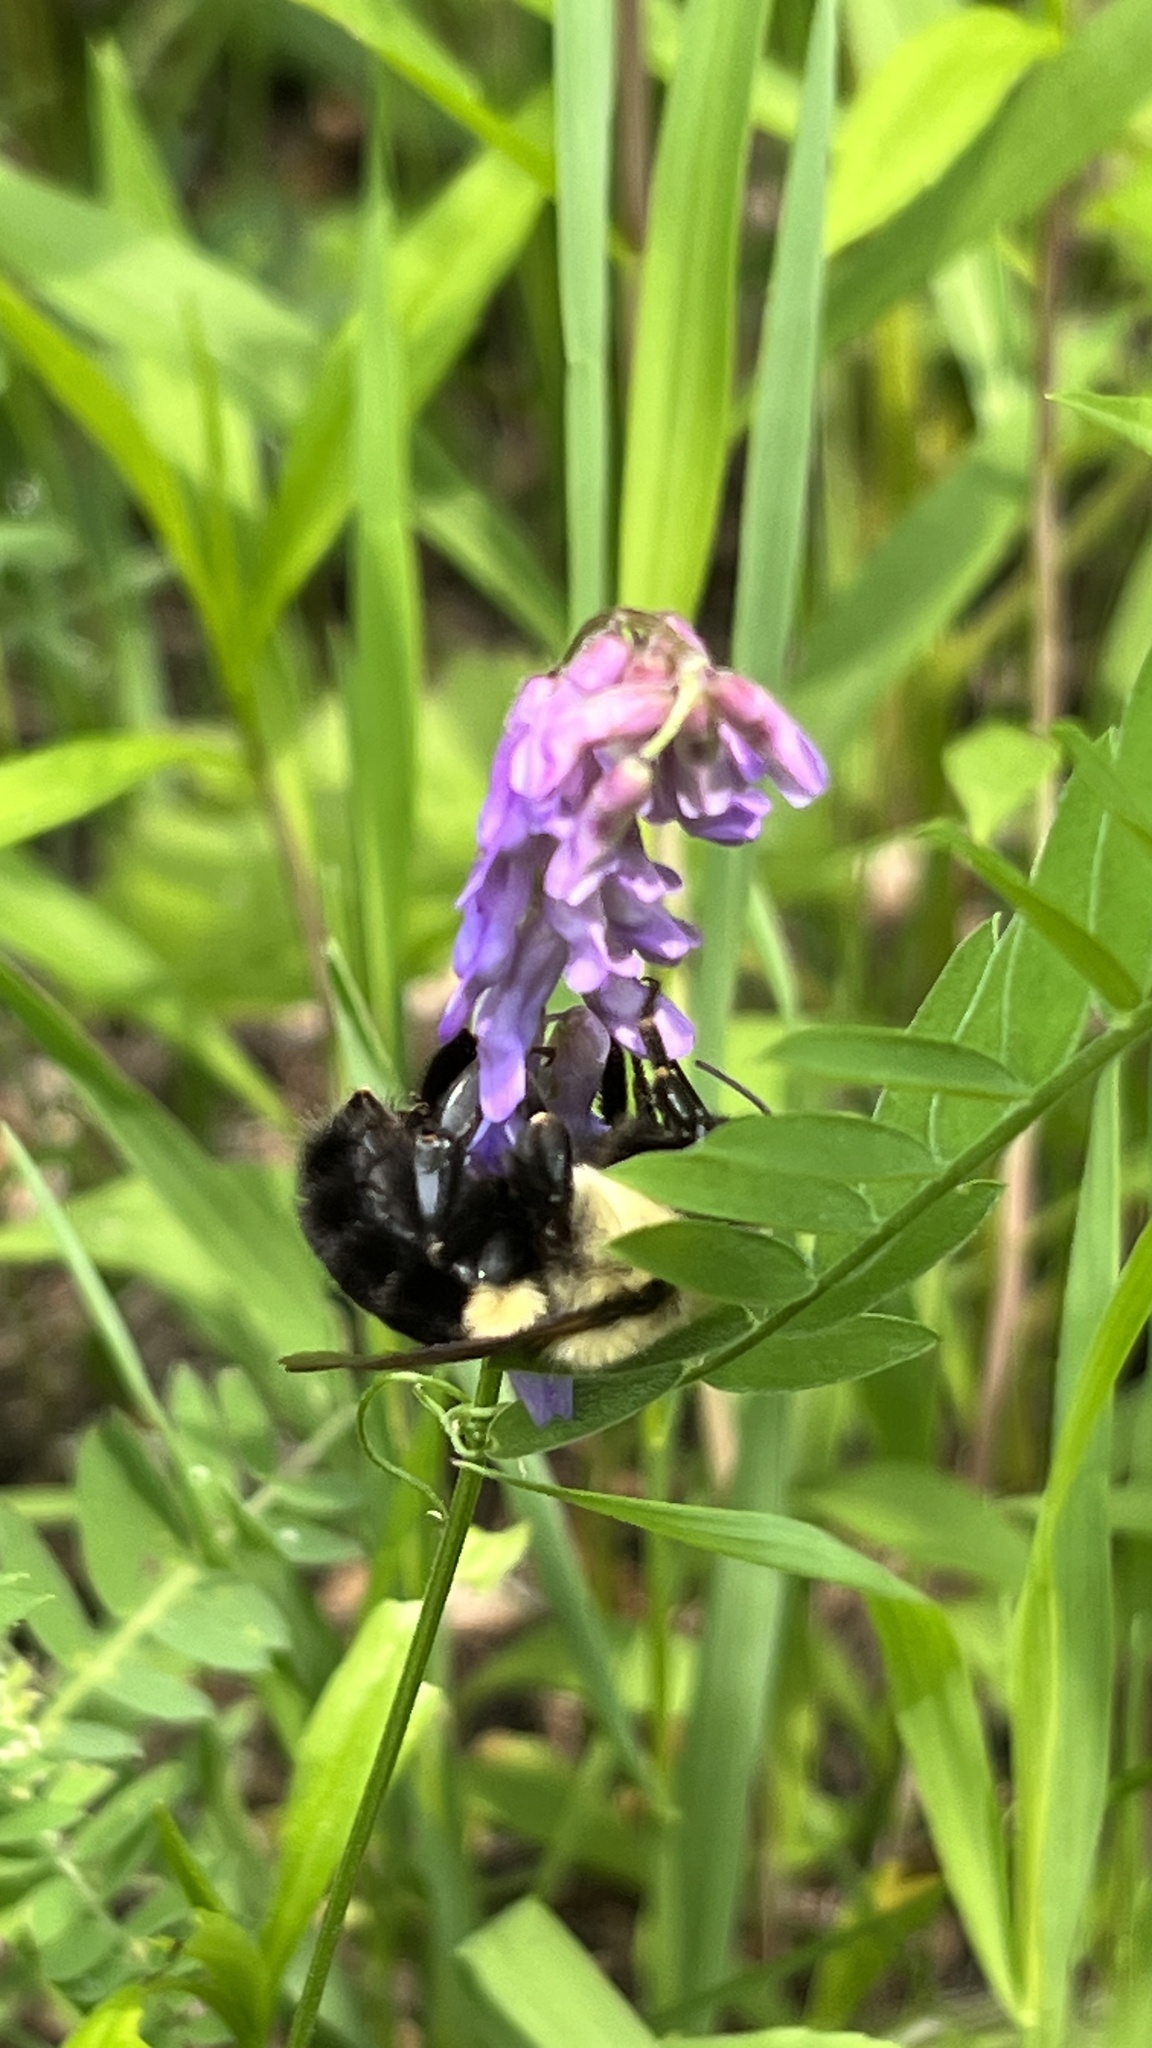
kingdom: Animalia
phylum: Arthropoda
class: Insecta
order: Hymenoptera
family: Apidae
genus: Bombus
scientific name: Bombus impatiens
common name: Common eastern bumble bee
